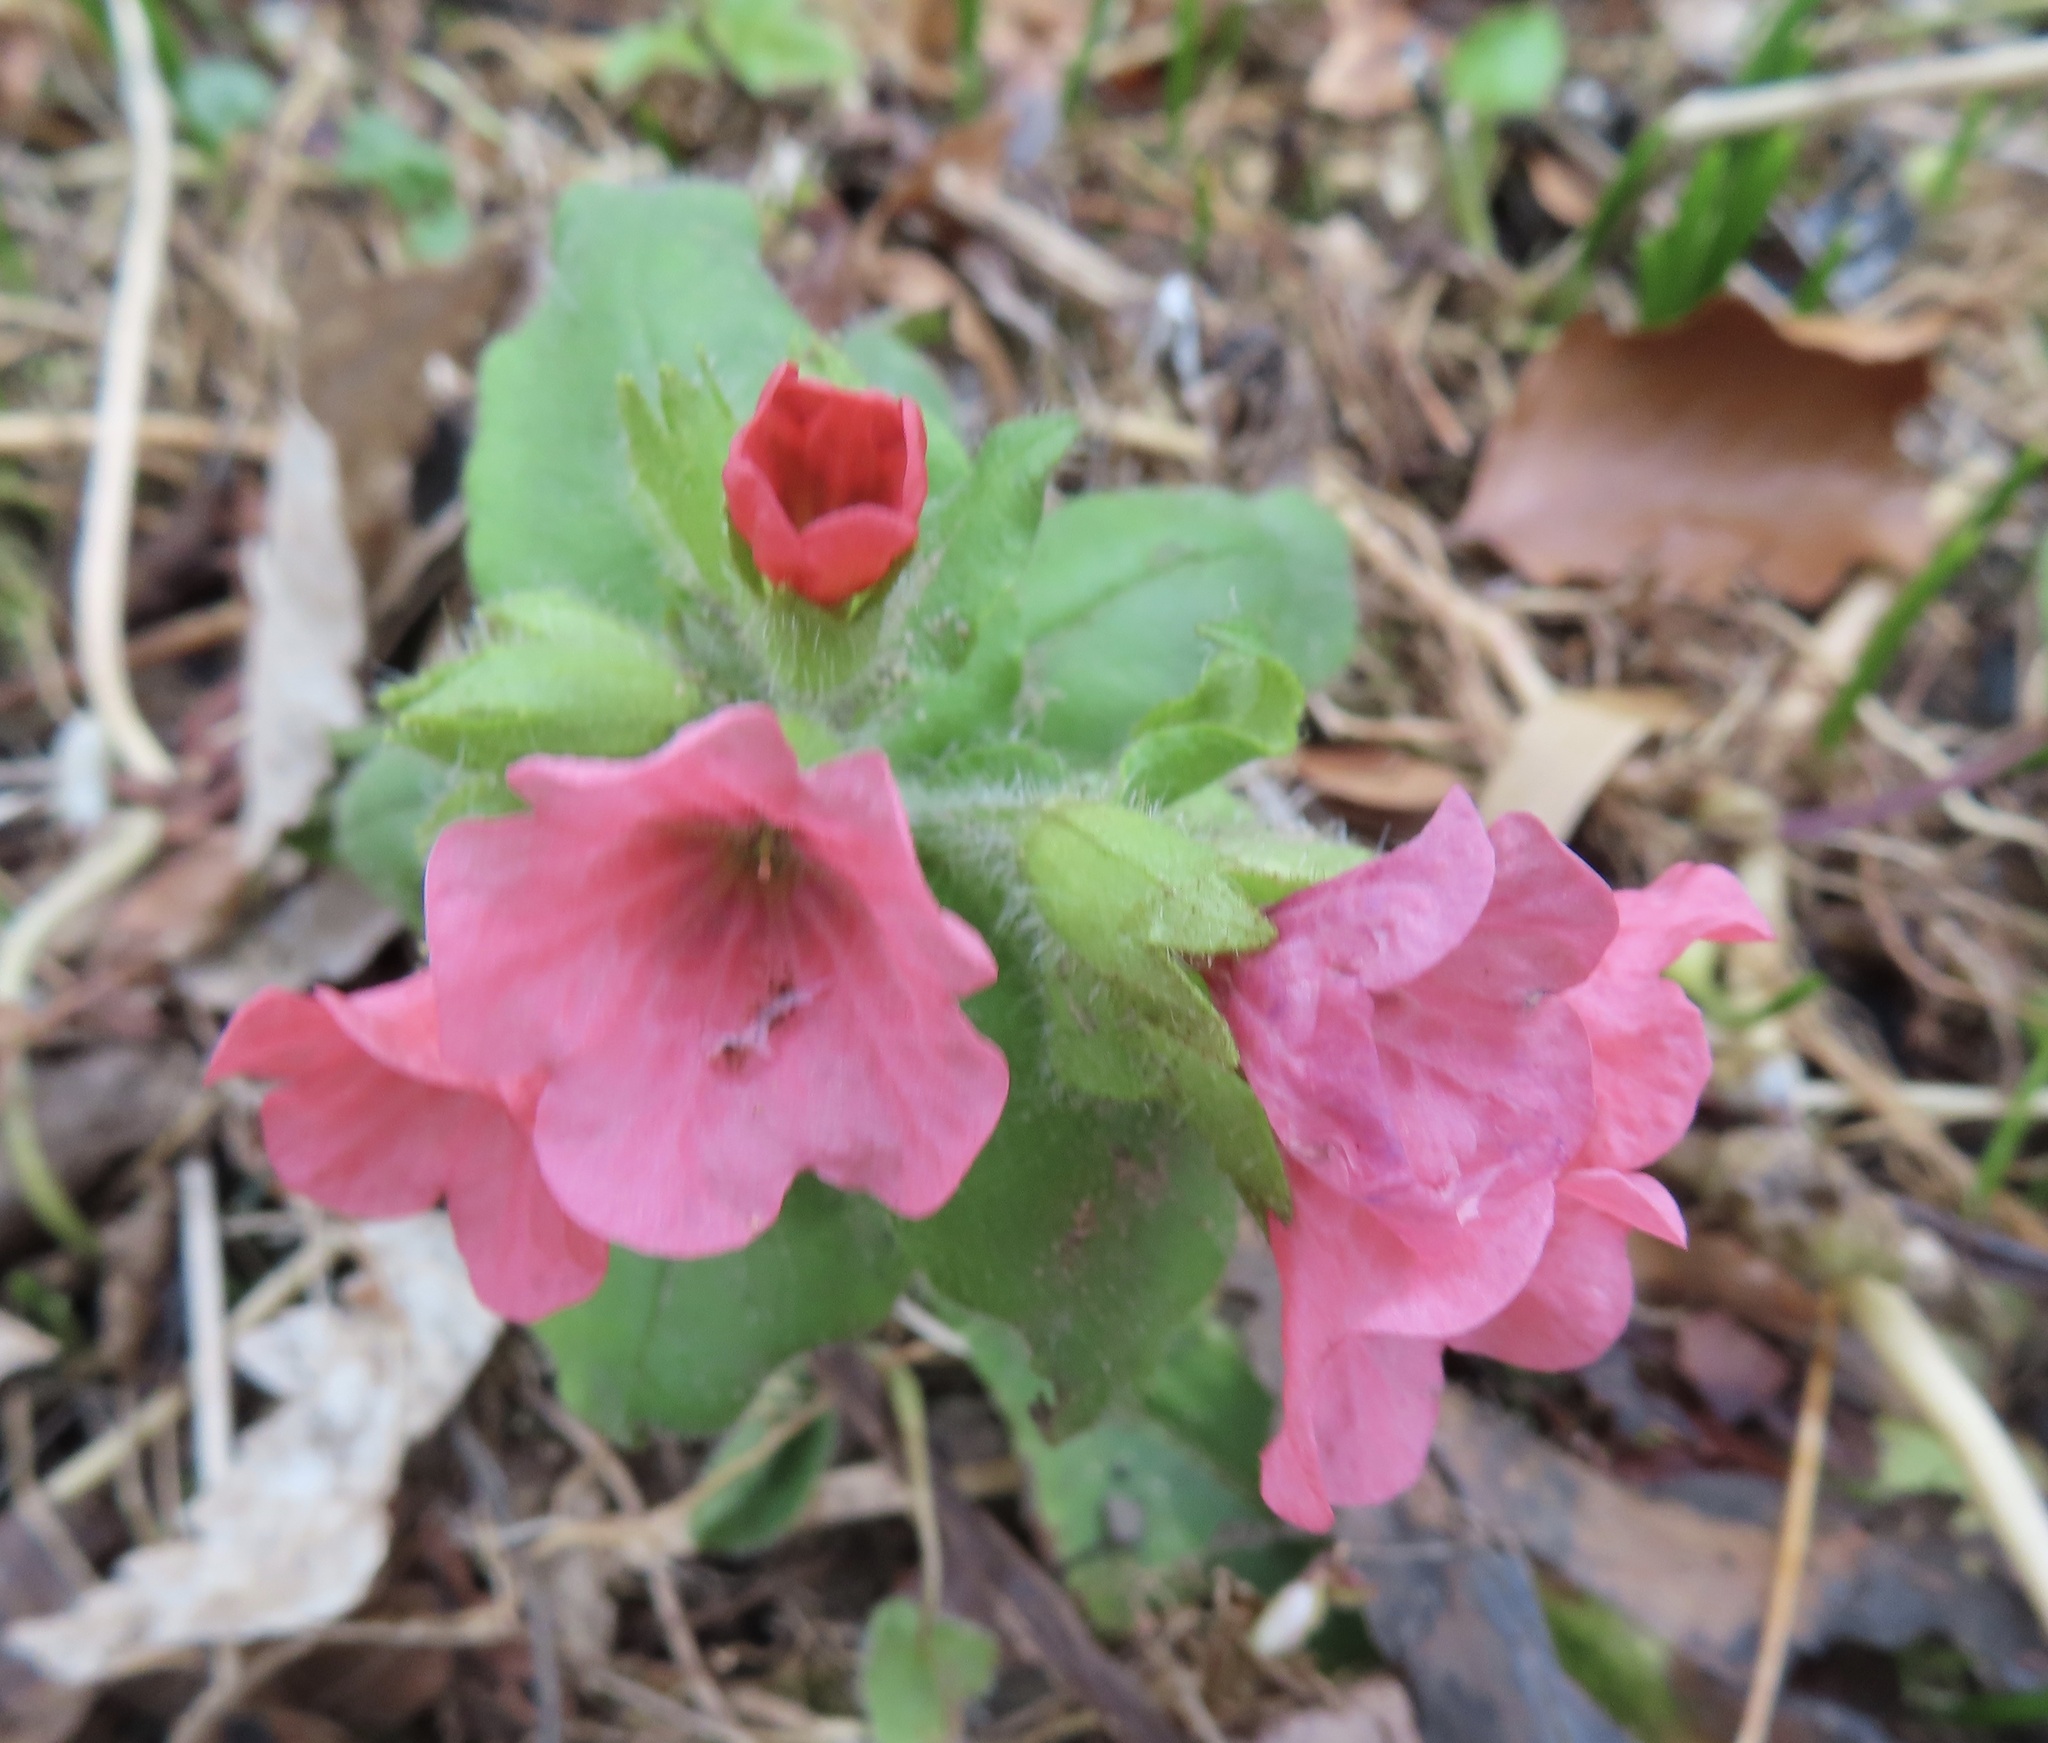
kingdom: Plantae
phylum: Tracheophyta
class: Magnoliopsida
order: Boraginales
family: Boraginaceae
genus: Pulmonaria
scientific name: Pulmonaria rubra
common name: Red lungwort
